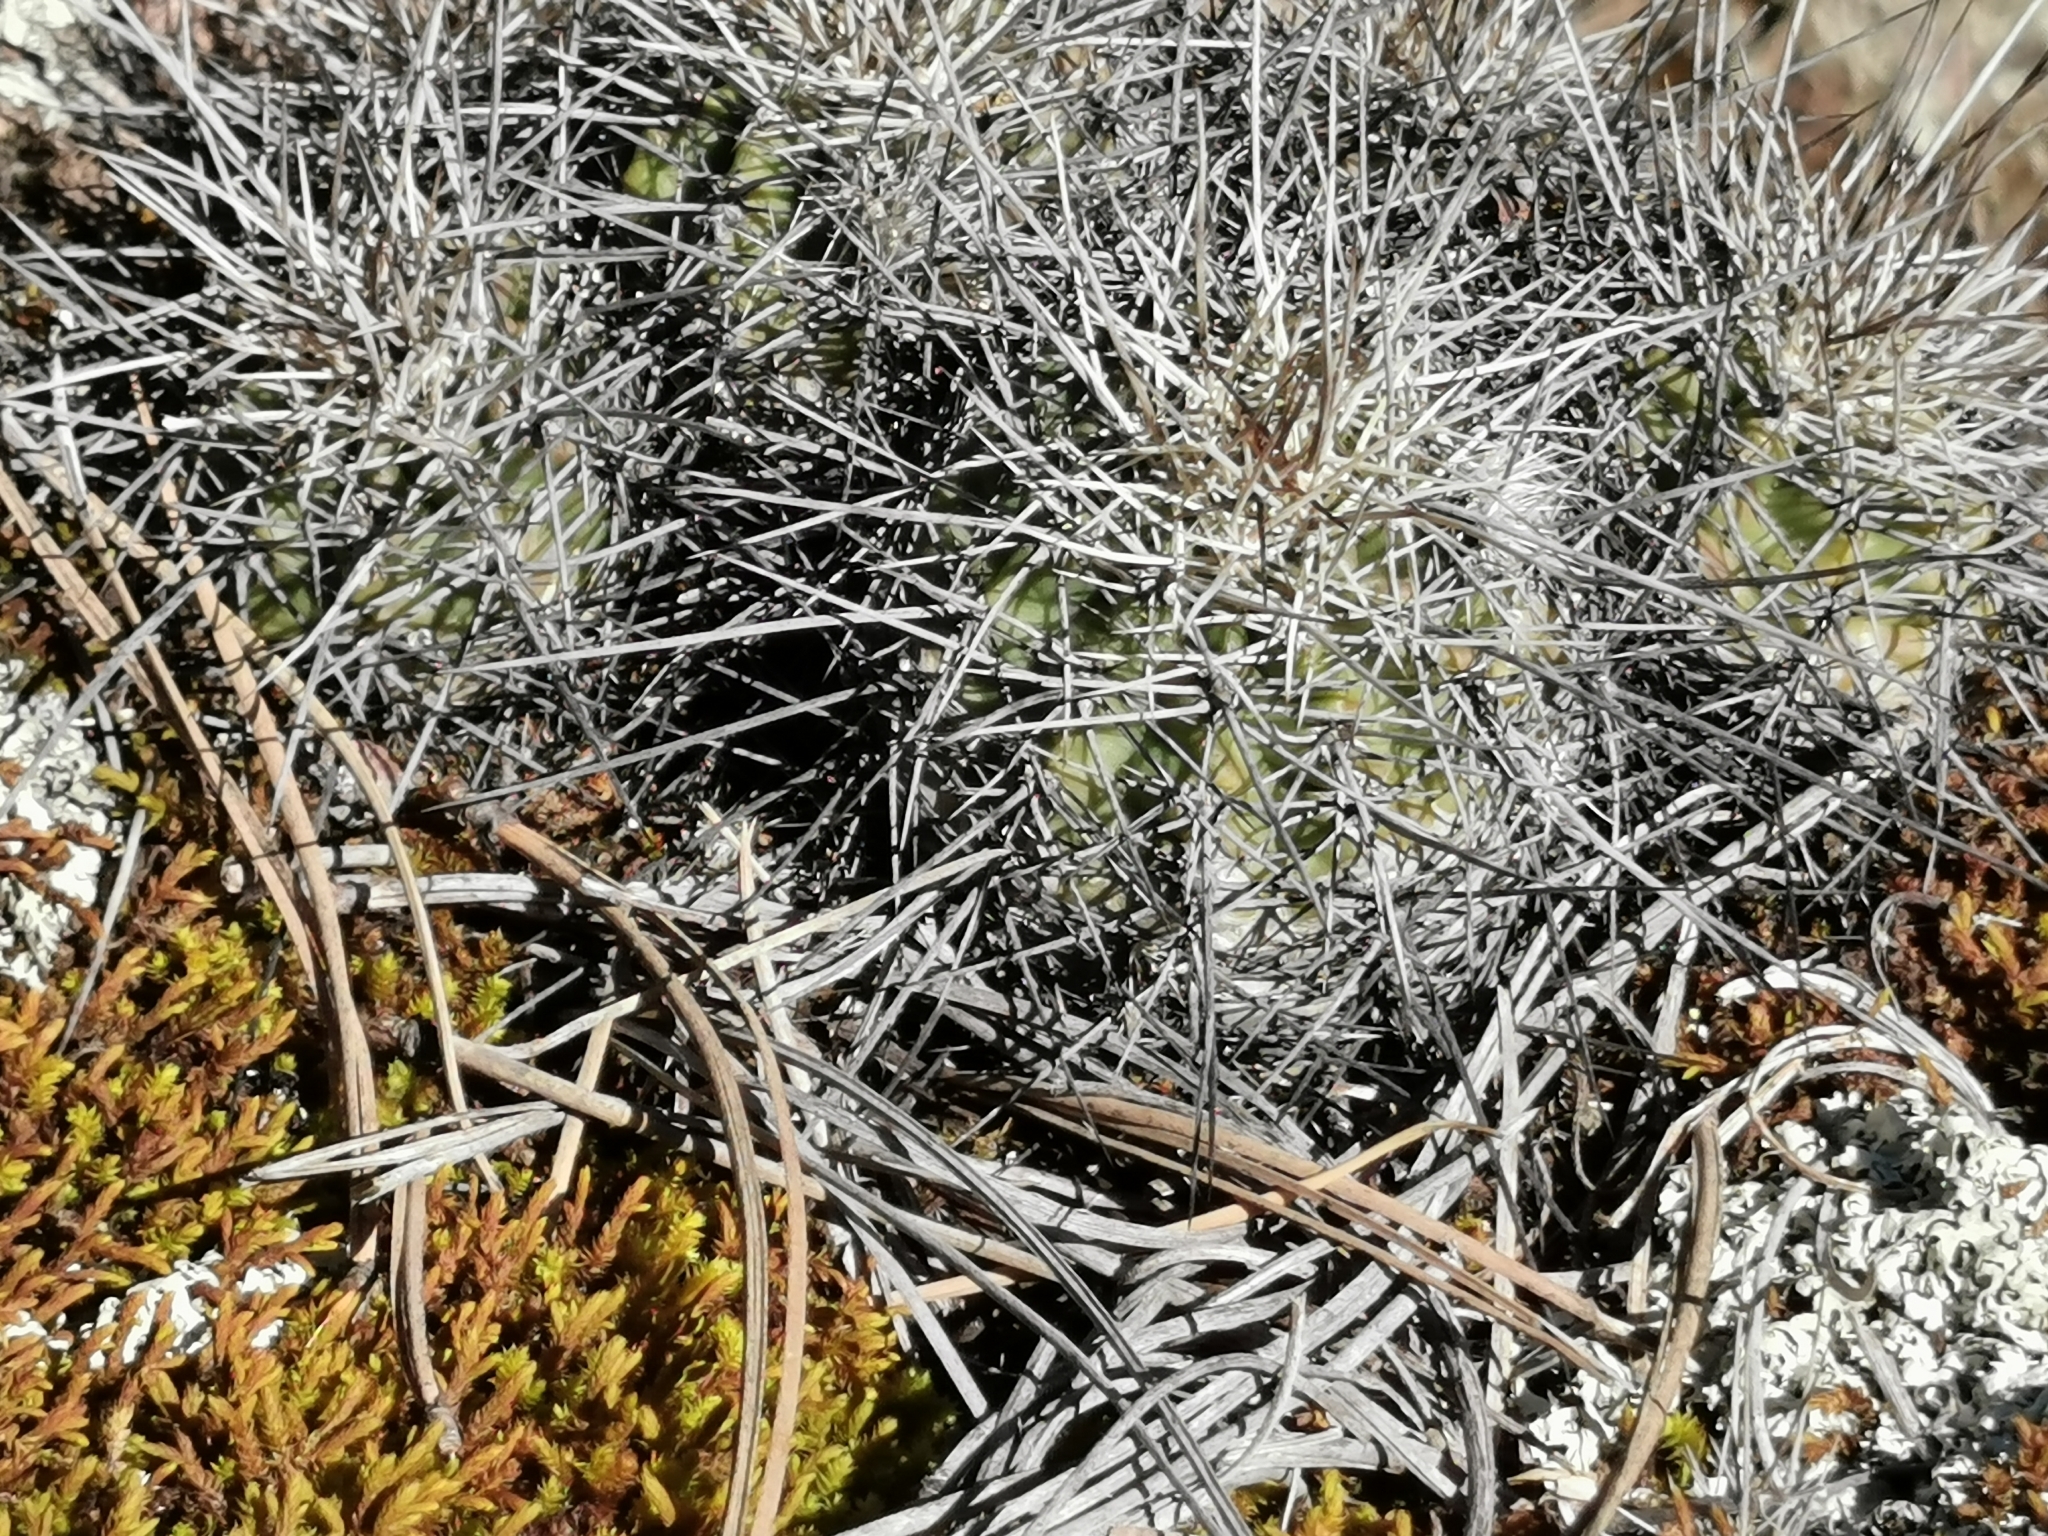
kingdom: Plantae
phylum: Tracheophyta
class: Magnoliopsida
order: Caryophyllales
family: Cactaceae
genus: Echinocereus
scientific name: Echinocereus polyacanthus
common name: Mojave mound cactus
